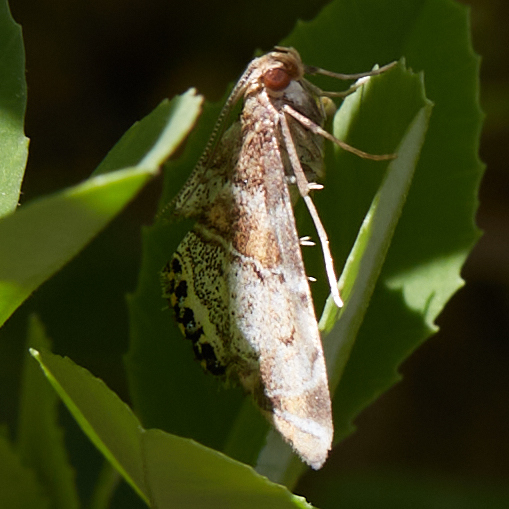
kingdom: Animalia
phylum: Arthropoda
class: Insecta
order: Lepidoptera
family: Crambidae
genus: Dicymolomia
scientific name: Dicymolomia metalliferalis
